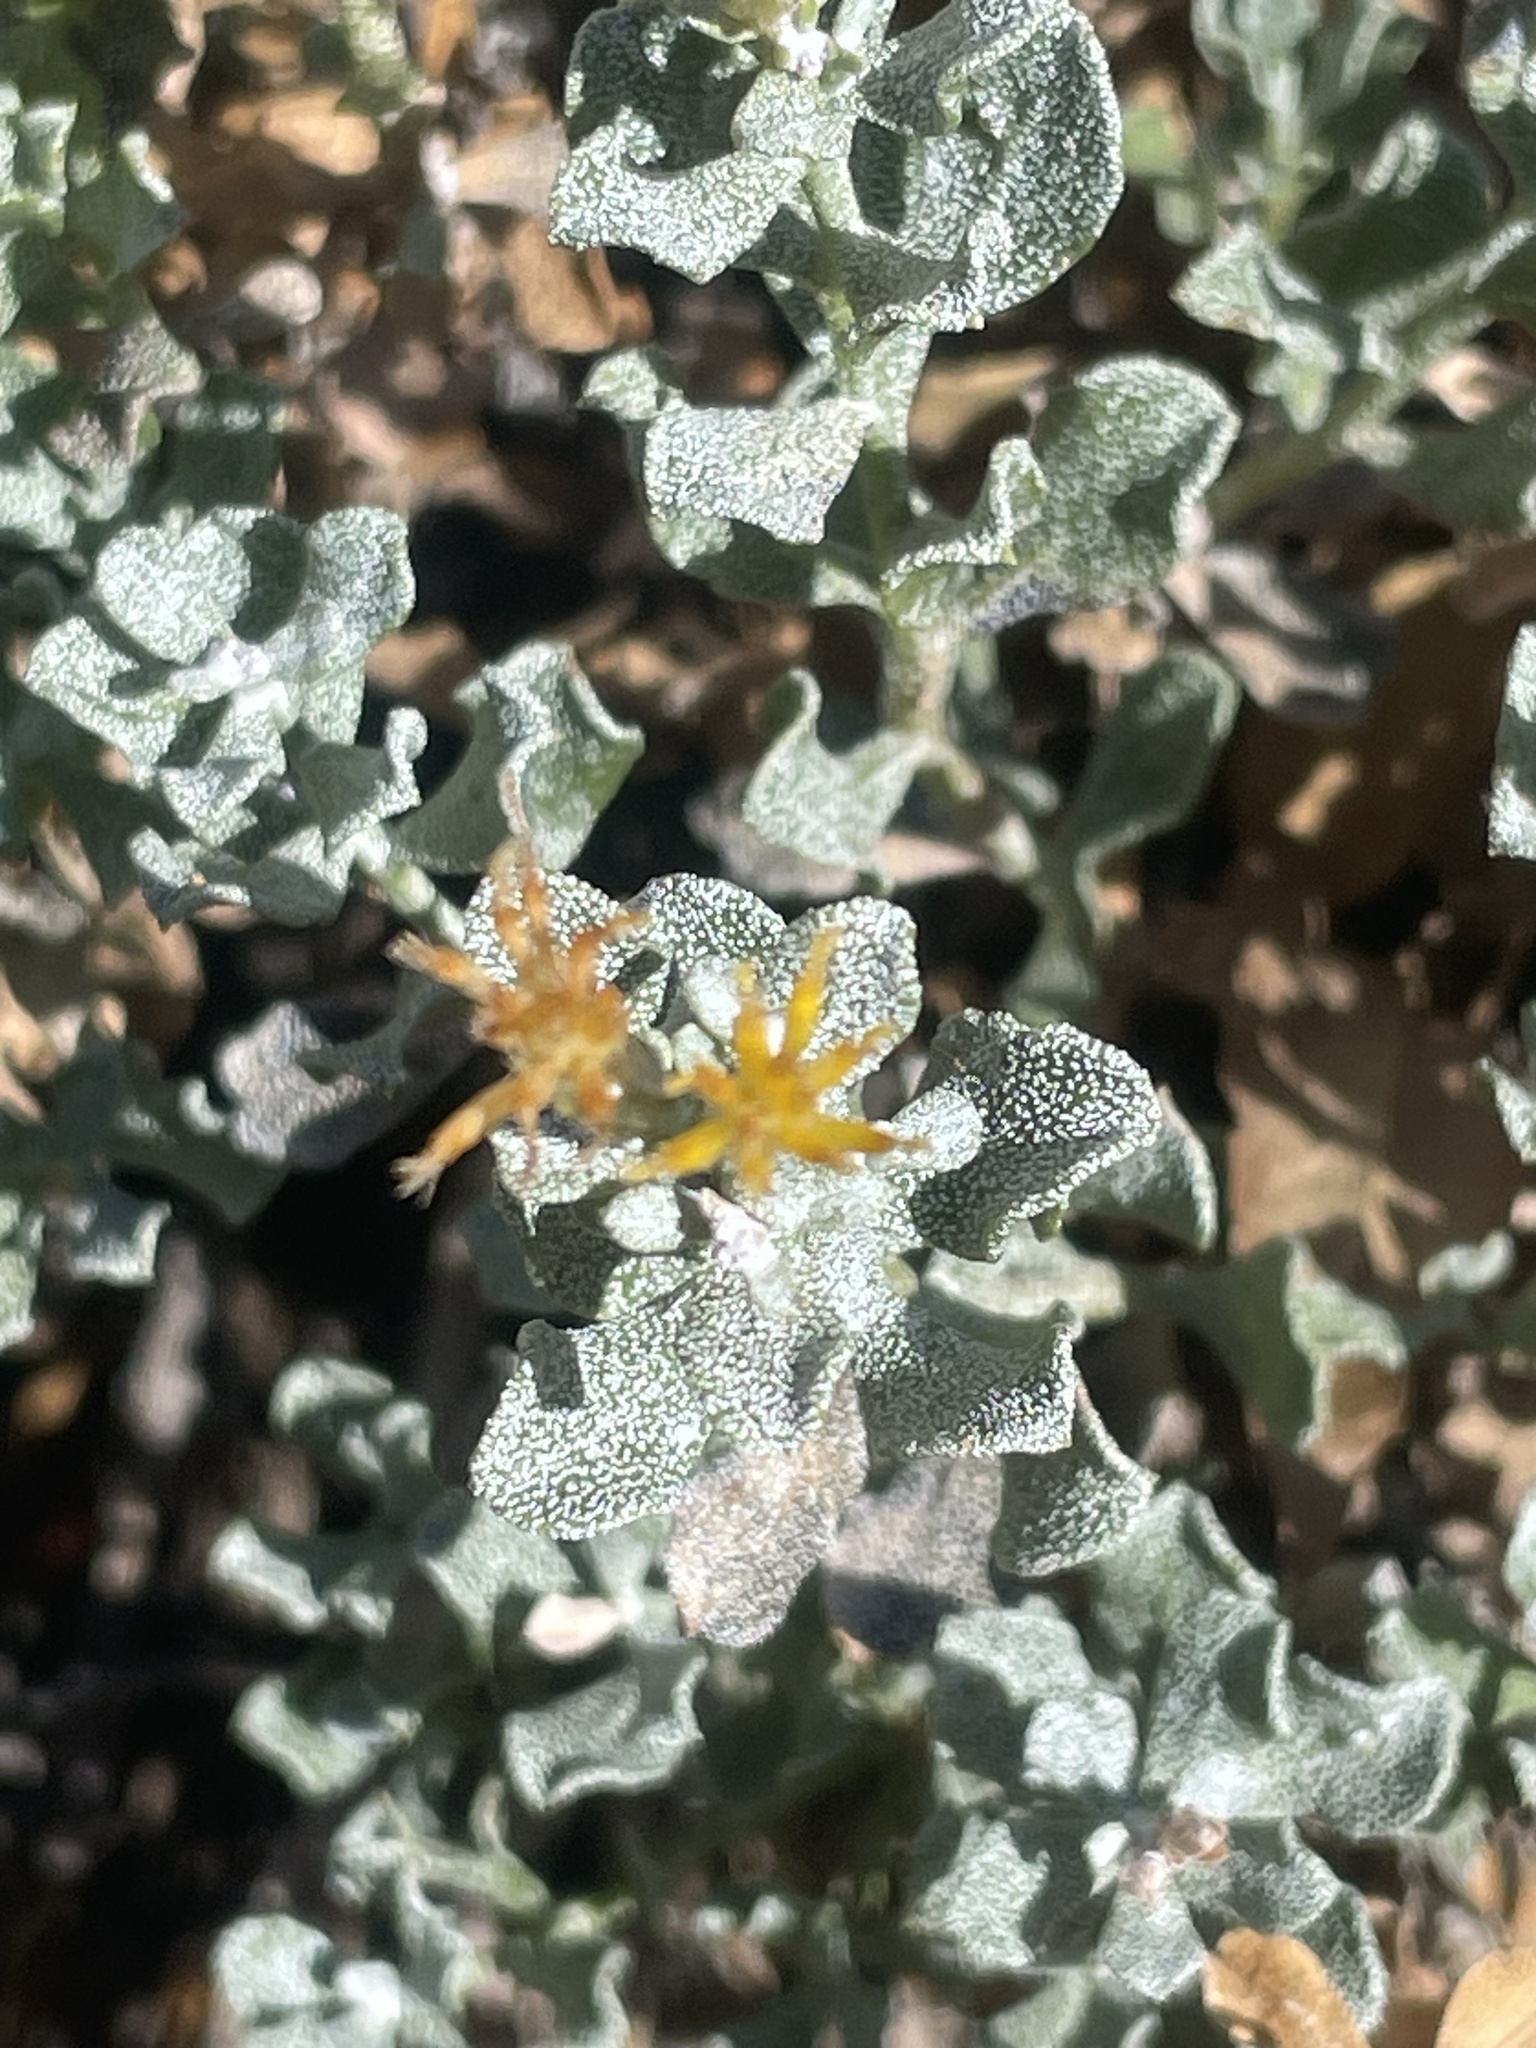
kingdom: Plantae
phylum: Tracheophyta
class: Magnoliopsida
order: Asterales
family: Asteraceae
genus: Ericameria
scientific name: Ericameria cuneata
